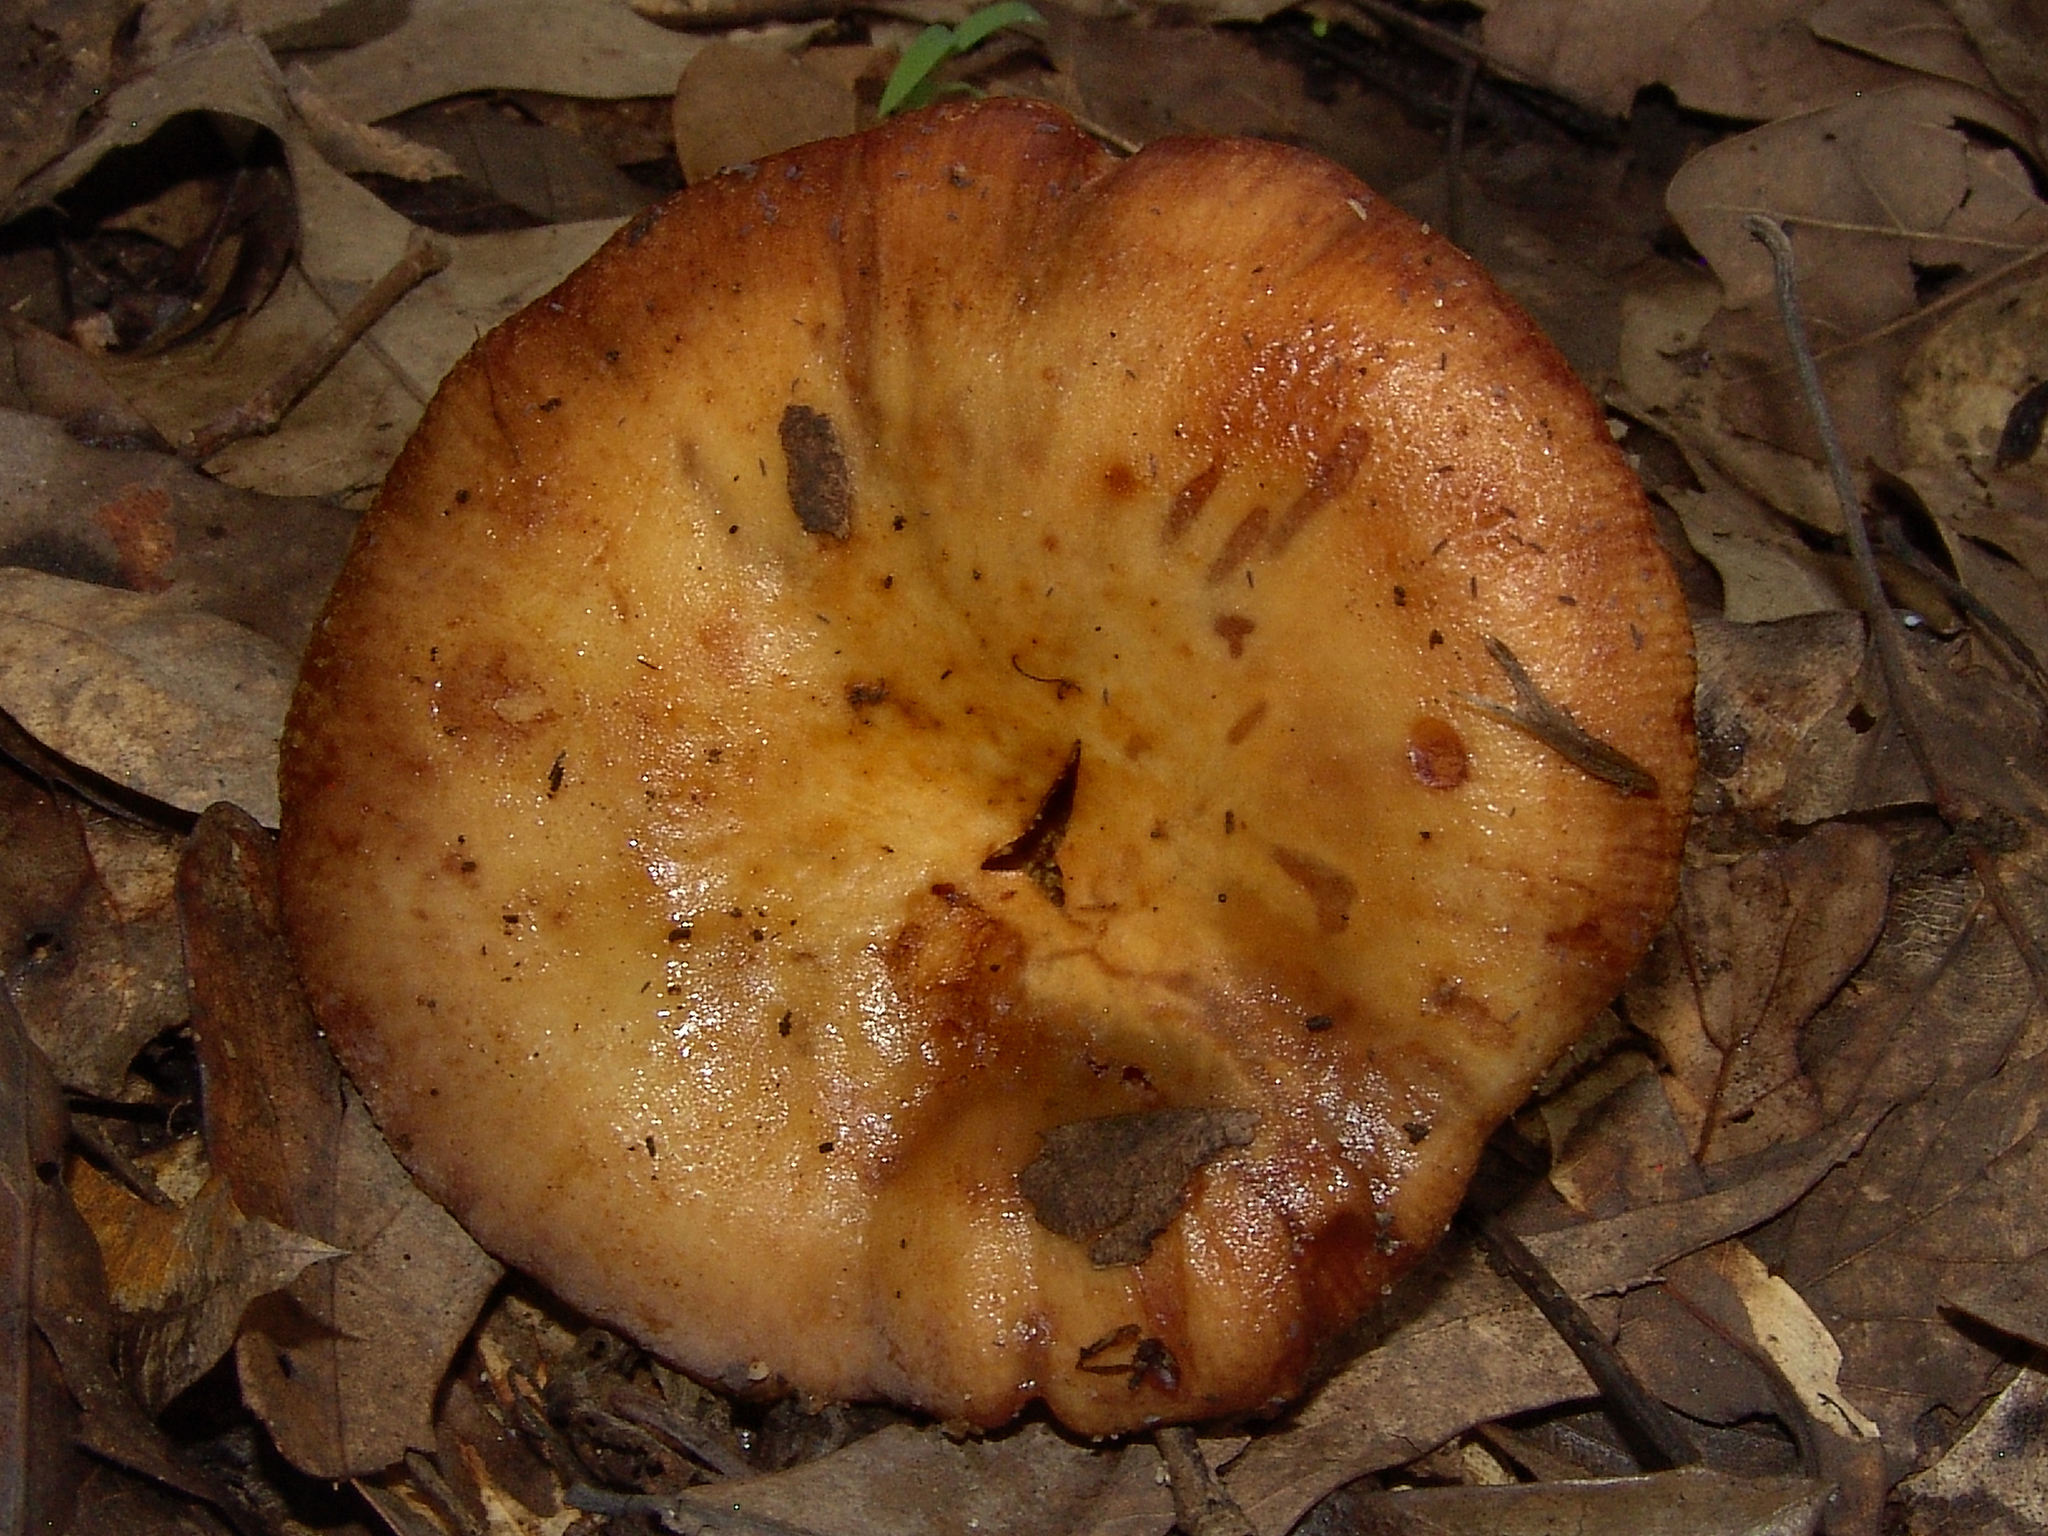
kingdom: Fungi
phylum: Basidiomycota
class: Agaricomycetes
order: Russulales
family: Russulaceae
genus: Russula
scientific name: Russula
